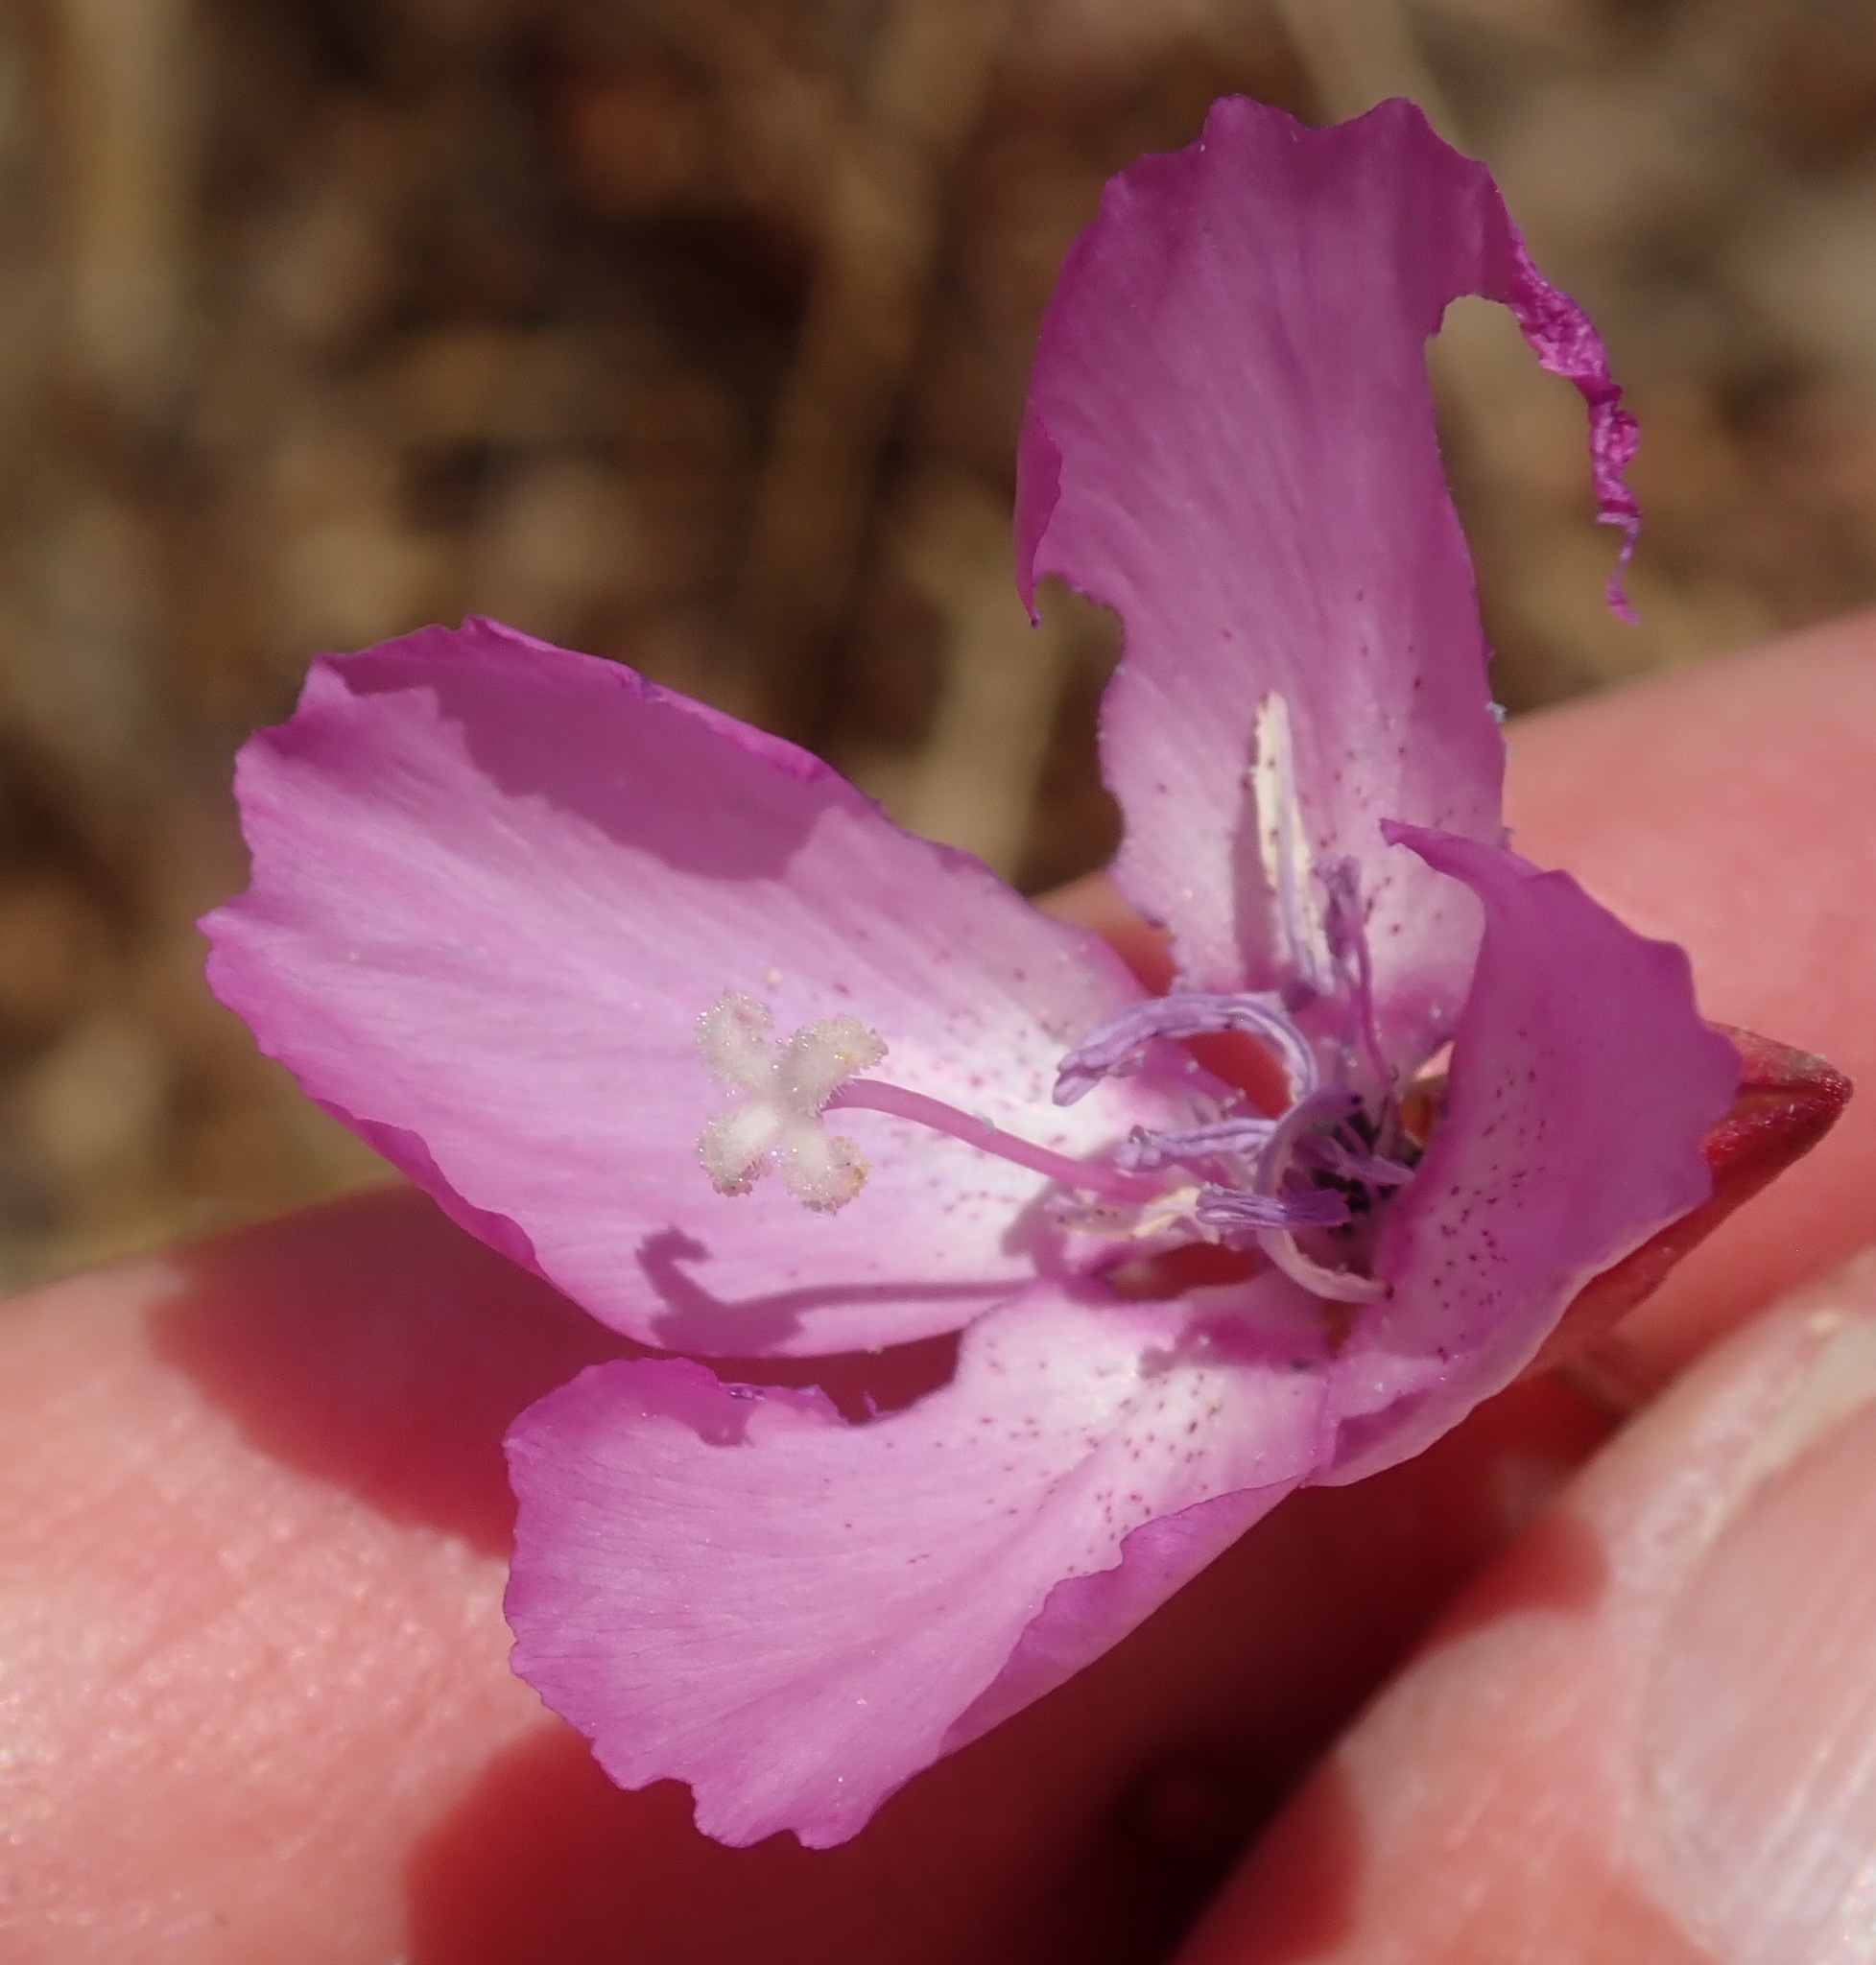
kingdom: Plantae
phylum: Tracheophyta
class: Magnoliopsida
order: Myrtales
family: Onagraceae
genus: Clarkia
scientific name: Clarkia lewisii
